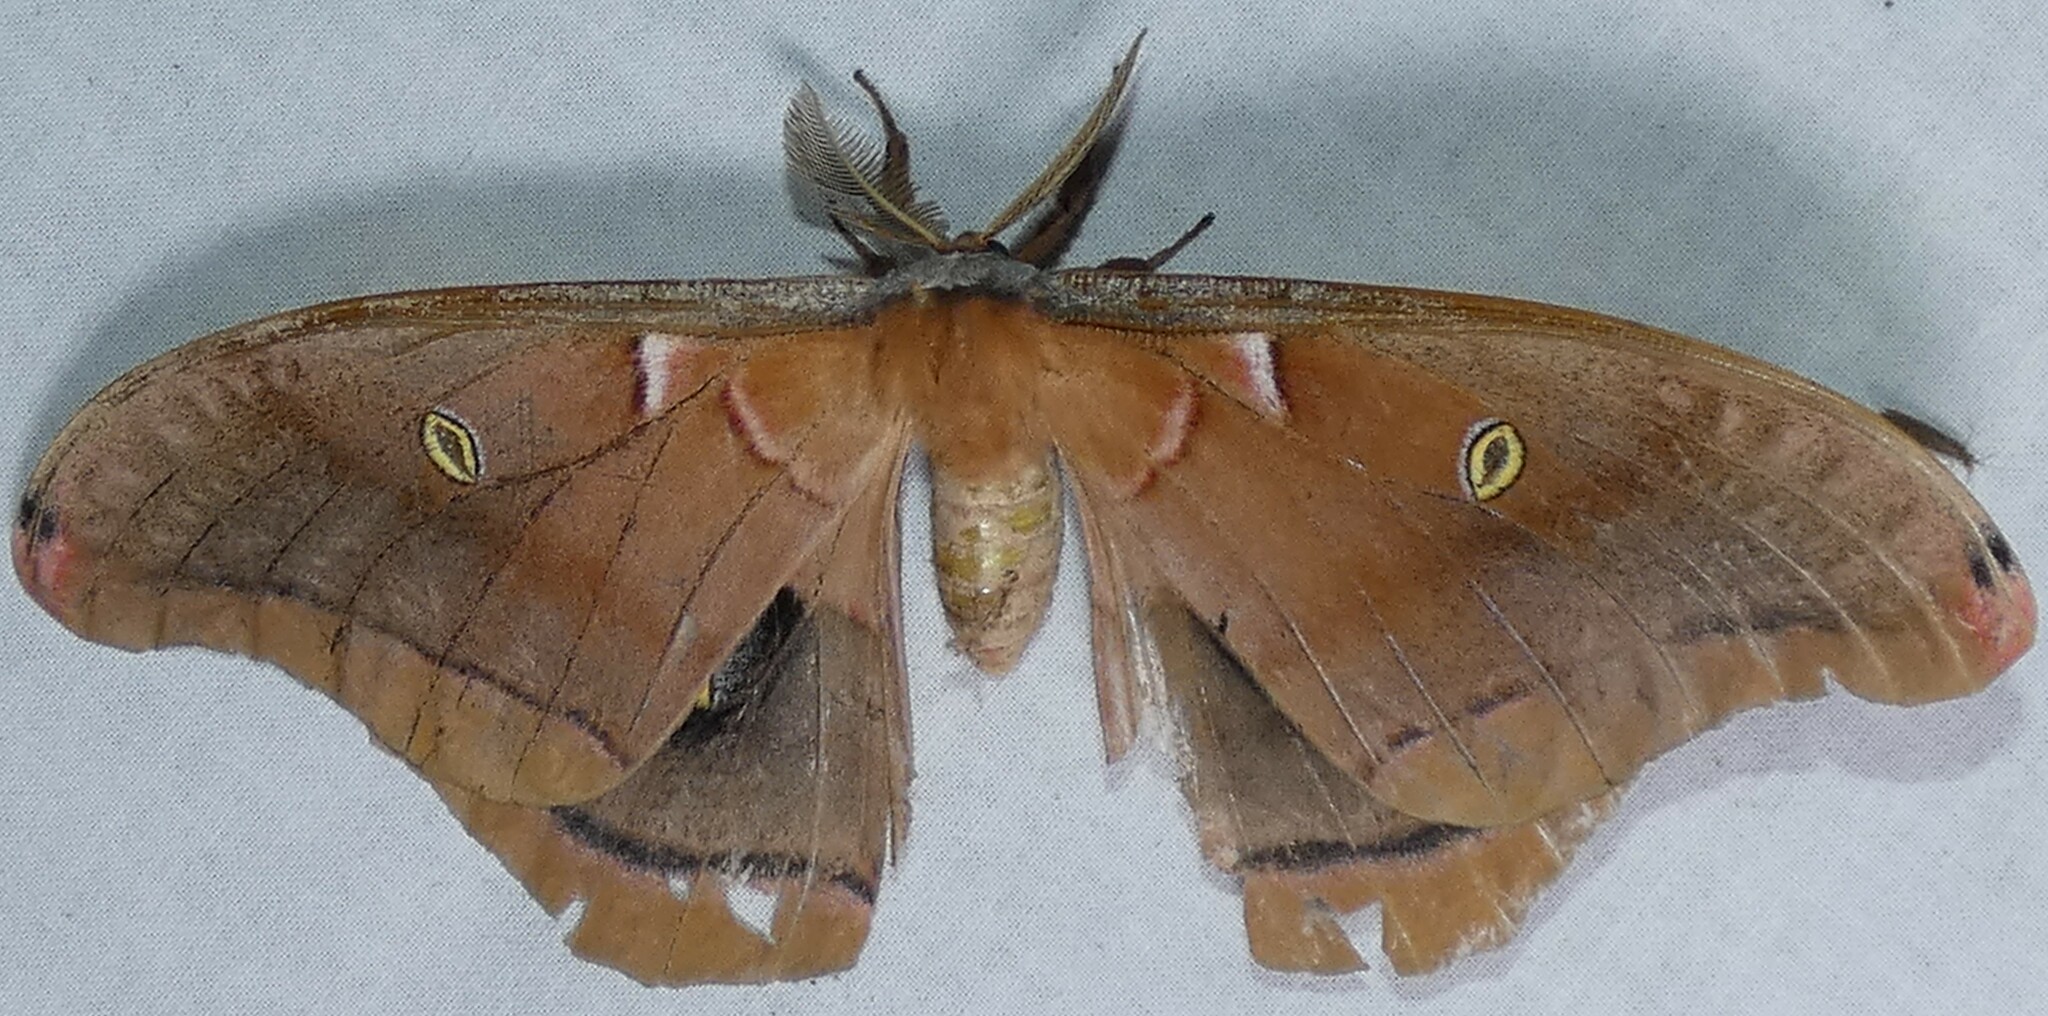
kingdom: Animalia
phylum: Arthropoda
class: Insecta
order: Lepidoptera
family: Saturniidae
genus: Antheraea
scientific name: Antheraea polyphemus
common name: Polyphemus moth
